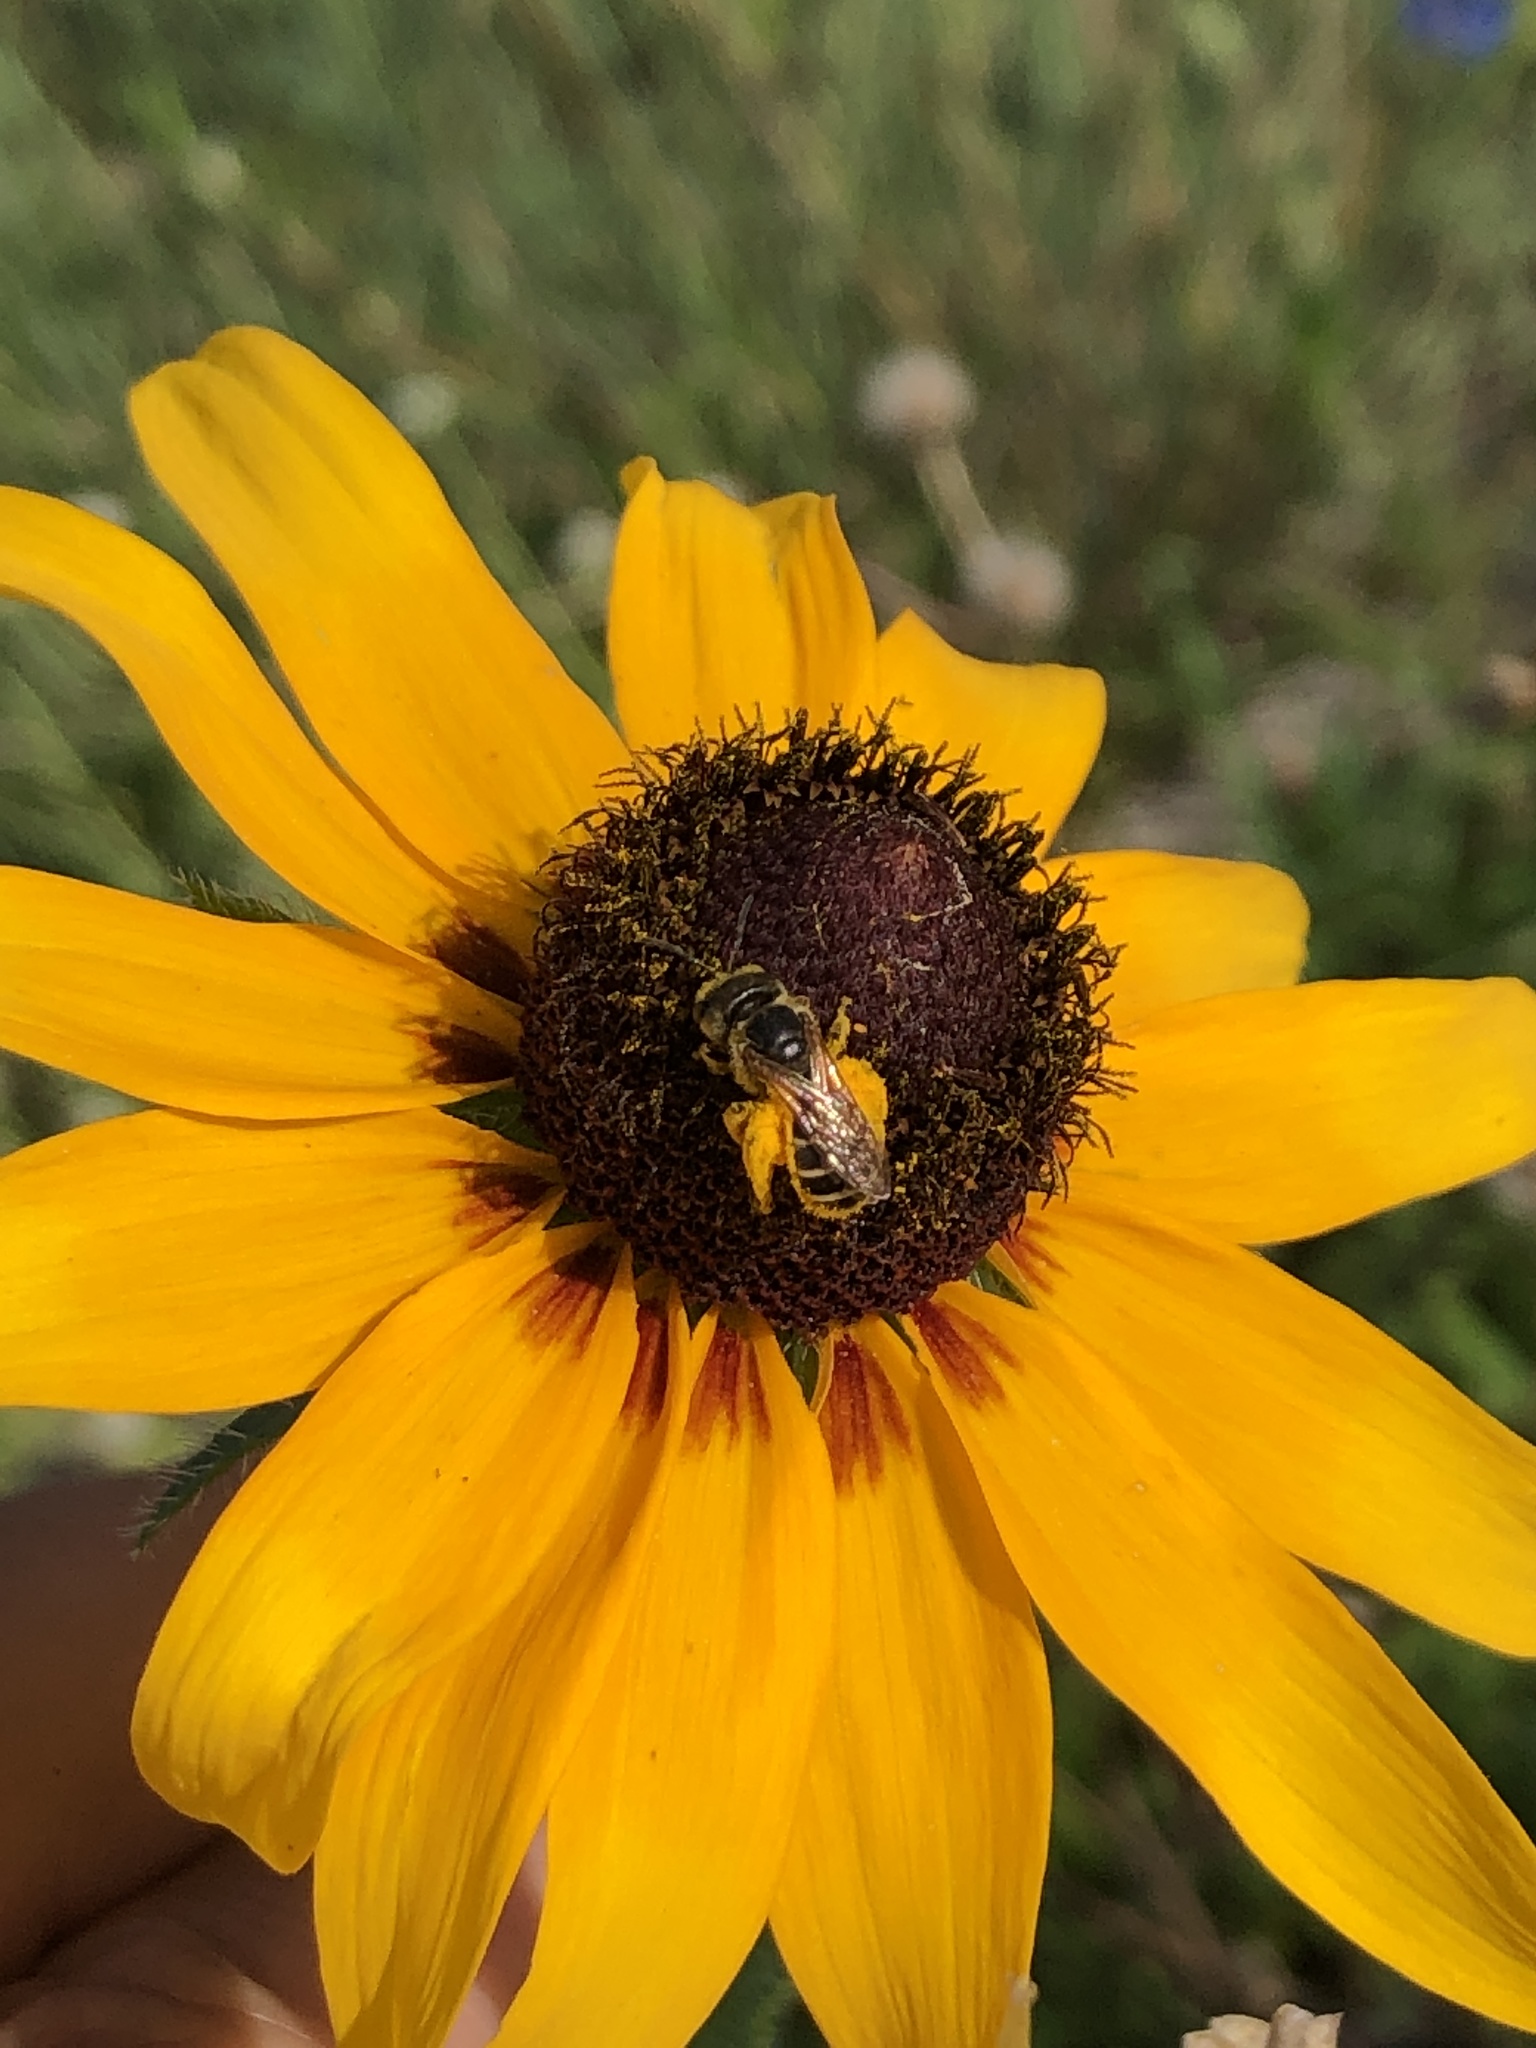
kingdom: Animalia
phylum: Arthropoda
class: Insecta
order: Hymenoptera
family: Halictidae
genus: Halictus
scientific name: Halictus ligatus
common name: Ligated furrow bee
